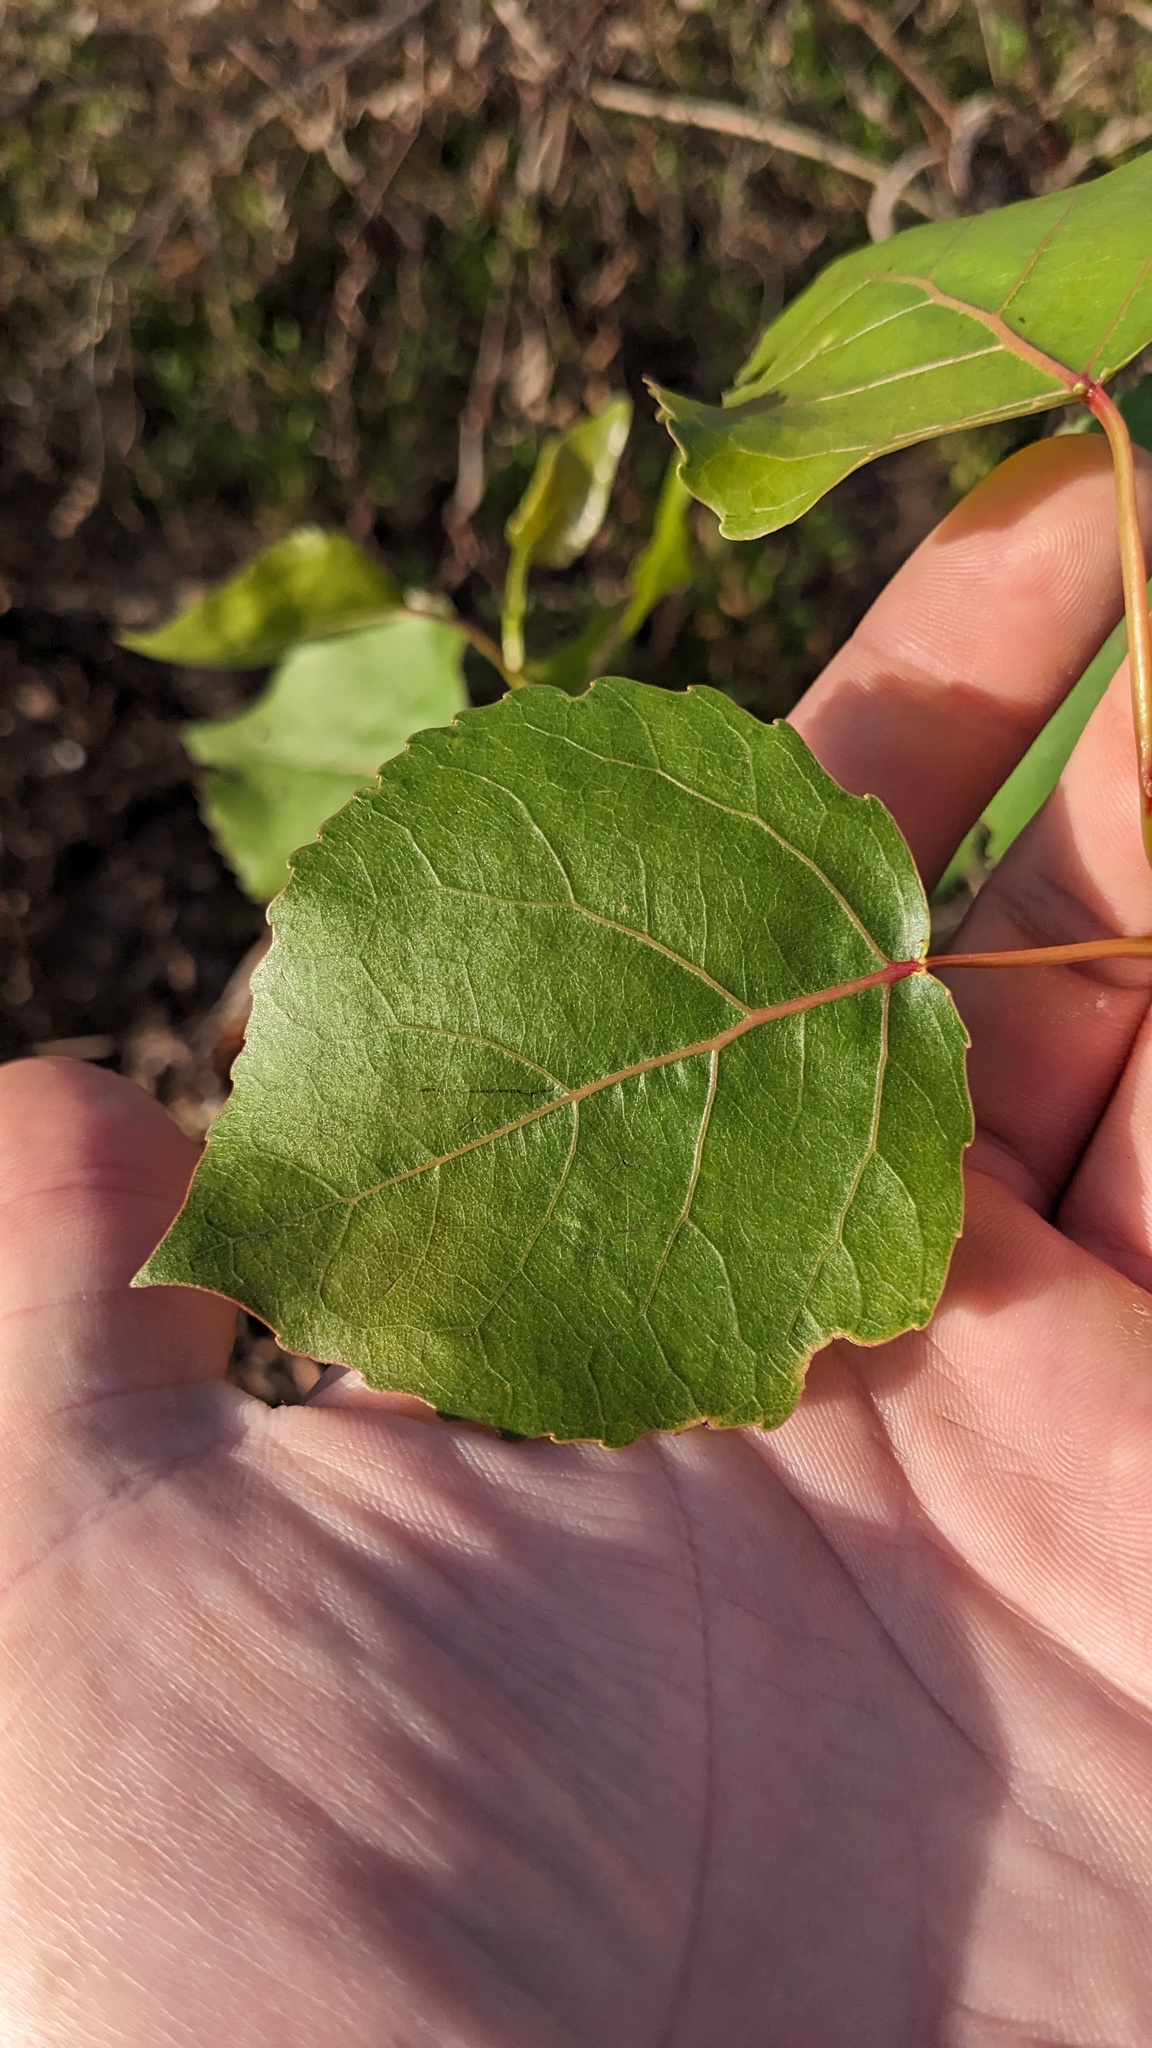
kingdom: Plantae
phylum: Tracheophyta
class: Magnoliopsida
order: Malpighiales
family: Salicaceae
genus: Populus
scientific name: Populus deltoides
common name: Eastern cottonwood
